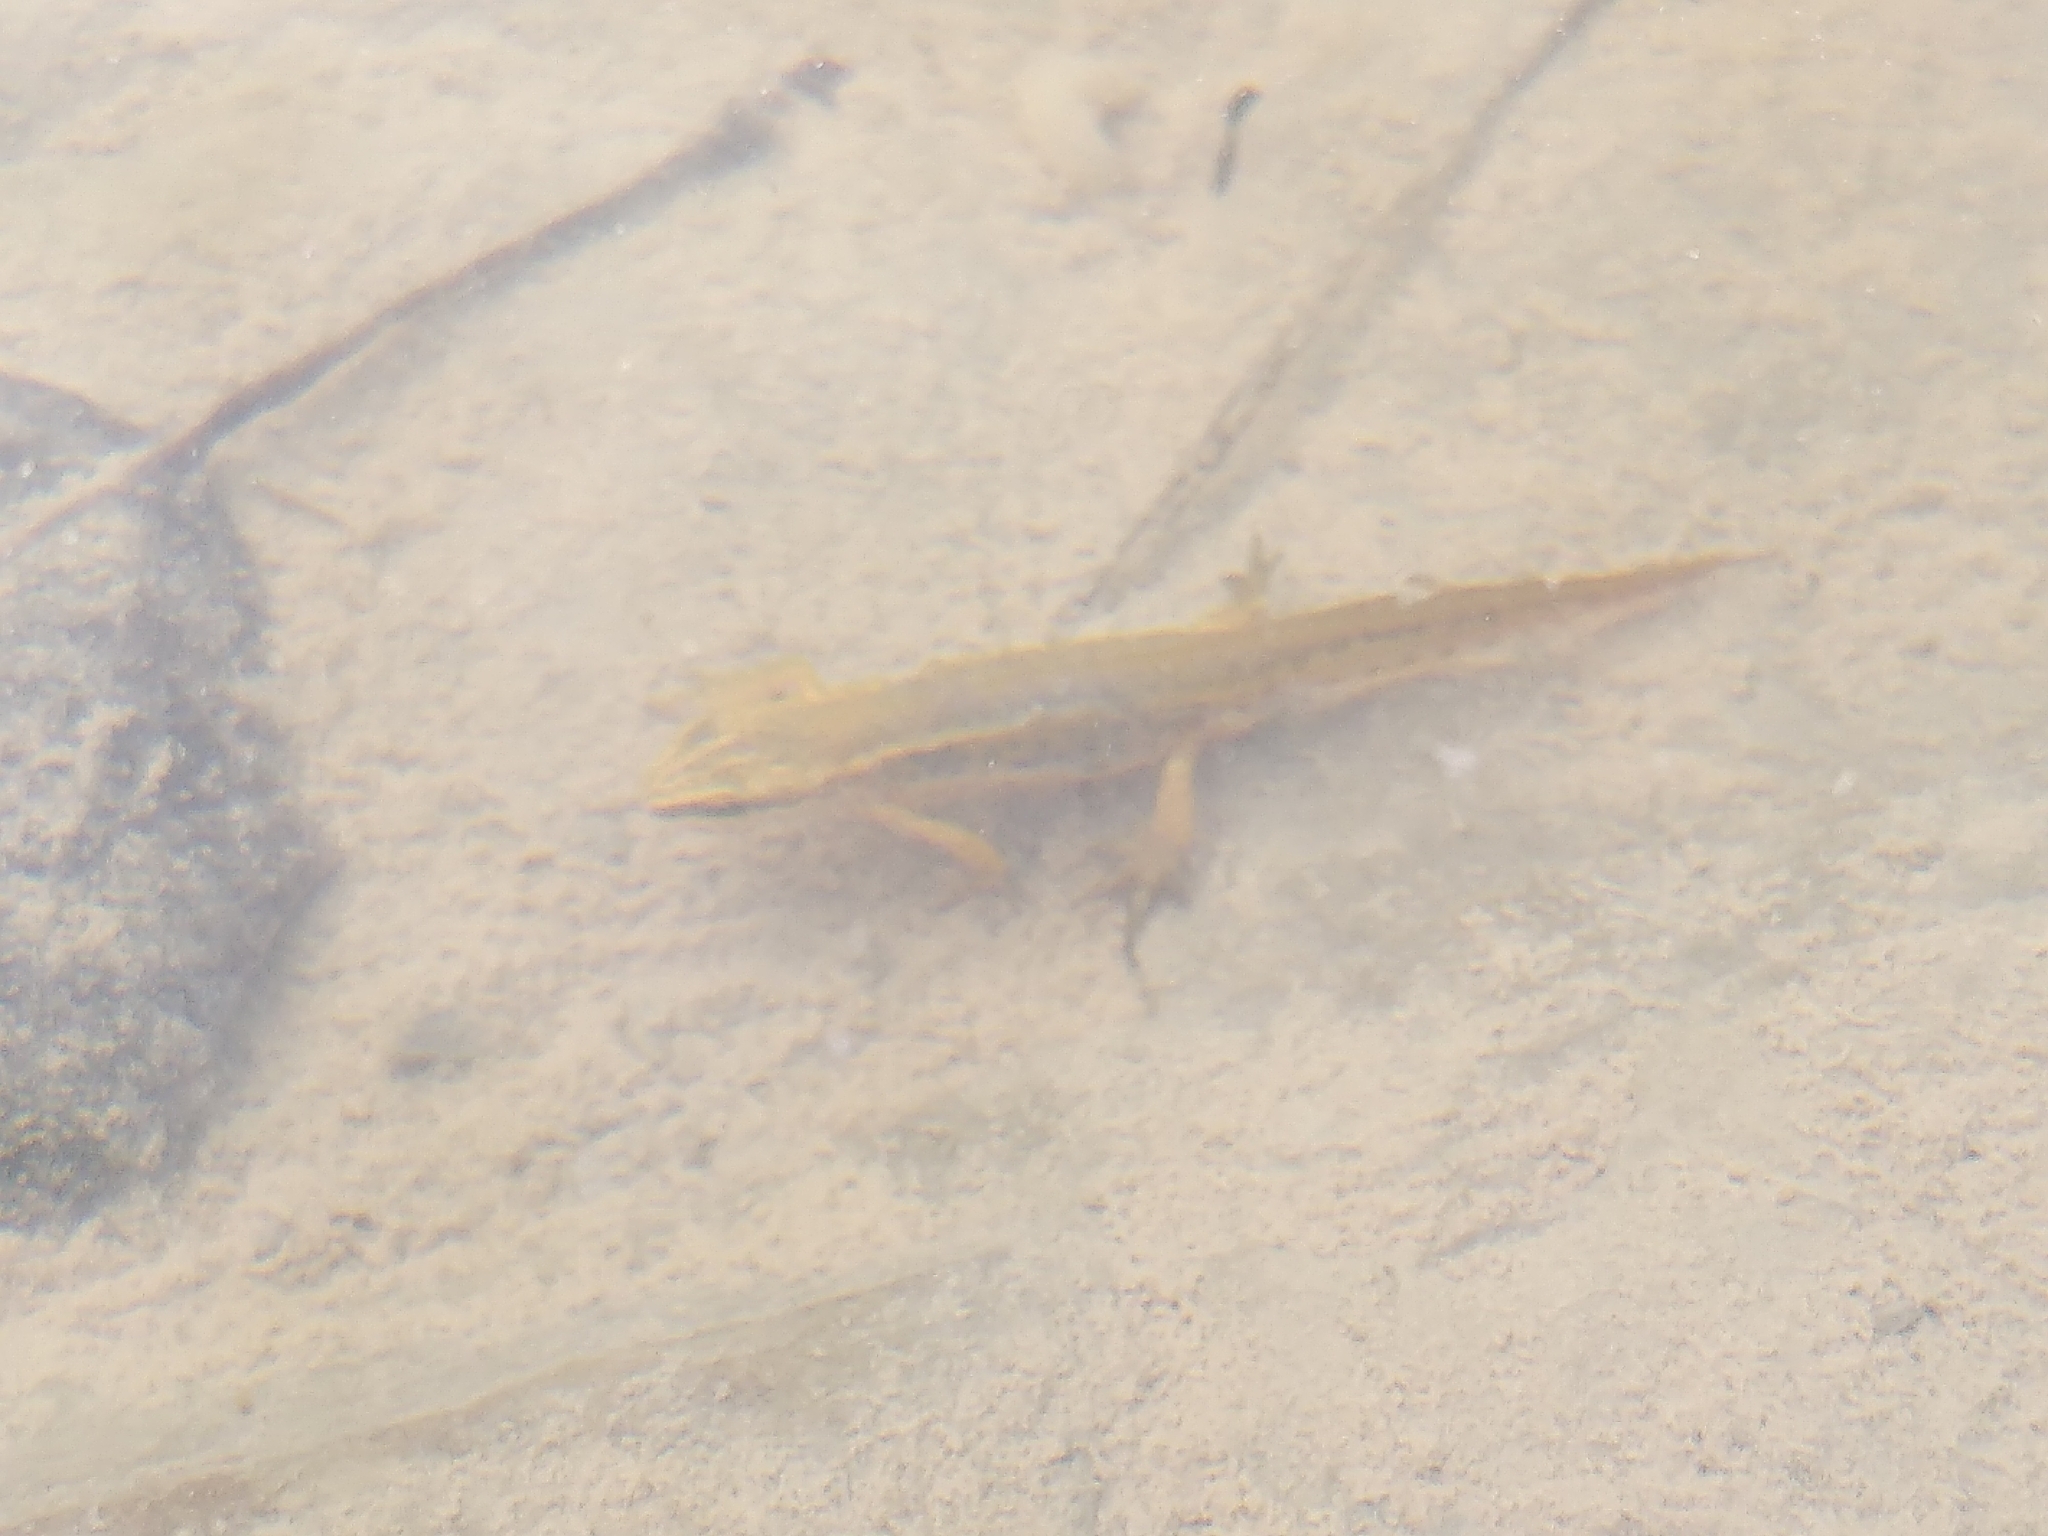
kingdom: Animalia
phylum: Chordata
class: Amphibia
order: Caudata
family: Salamandridae
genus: Lissotriton
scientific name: Lissotriton helveticus
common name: Palmate newt
